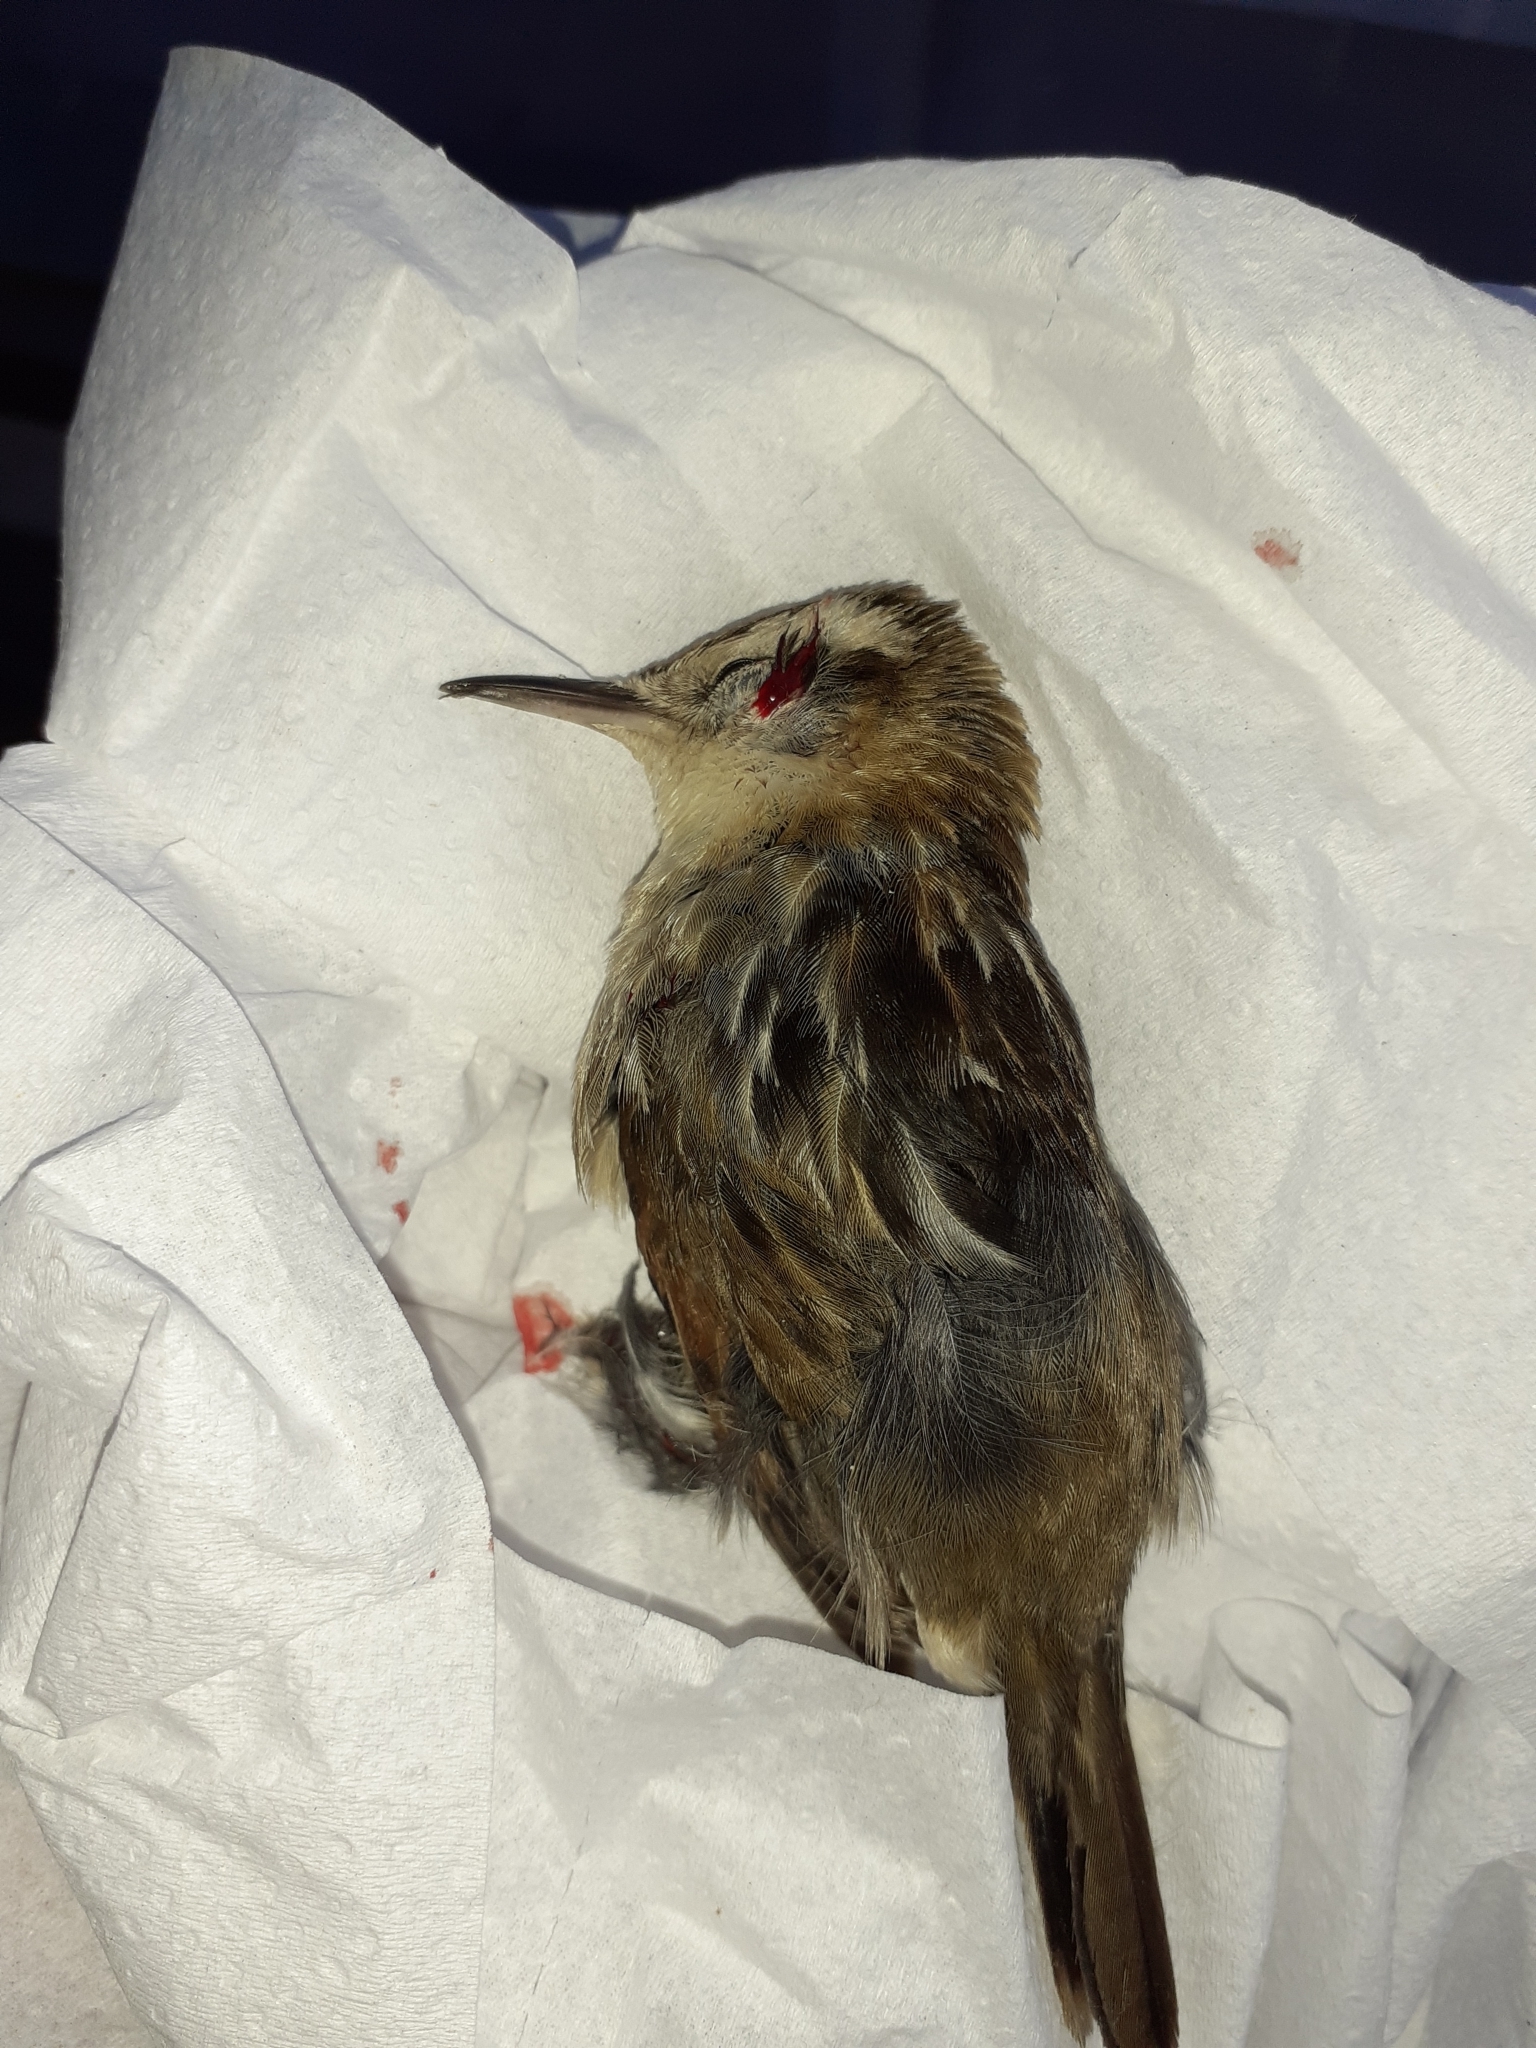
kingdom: Animalia
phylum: Chordata
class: Aves
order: Passeriformes
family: Furnariidae
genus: Phleocryptes
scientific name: Phleocryptes melanops
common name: Wren-like rushbird
